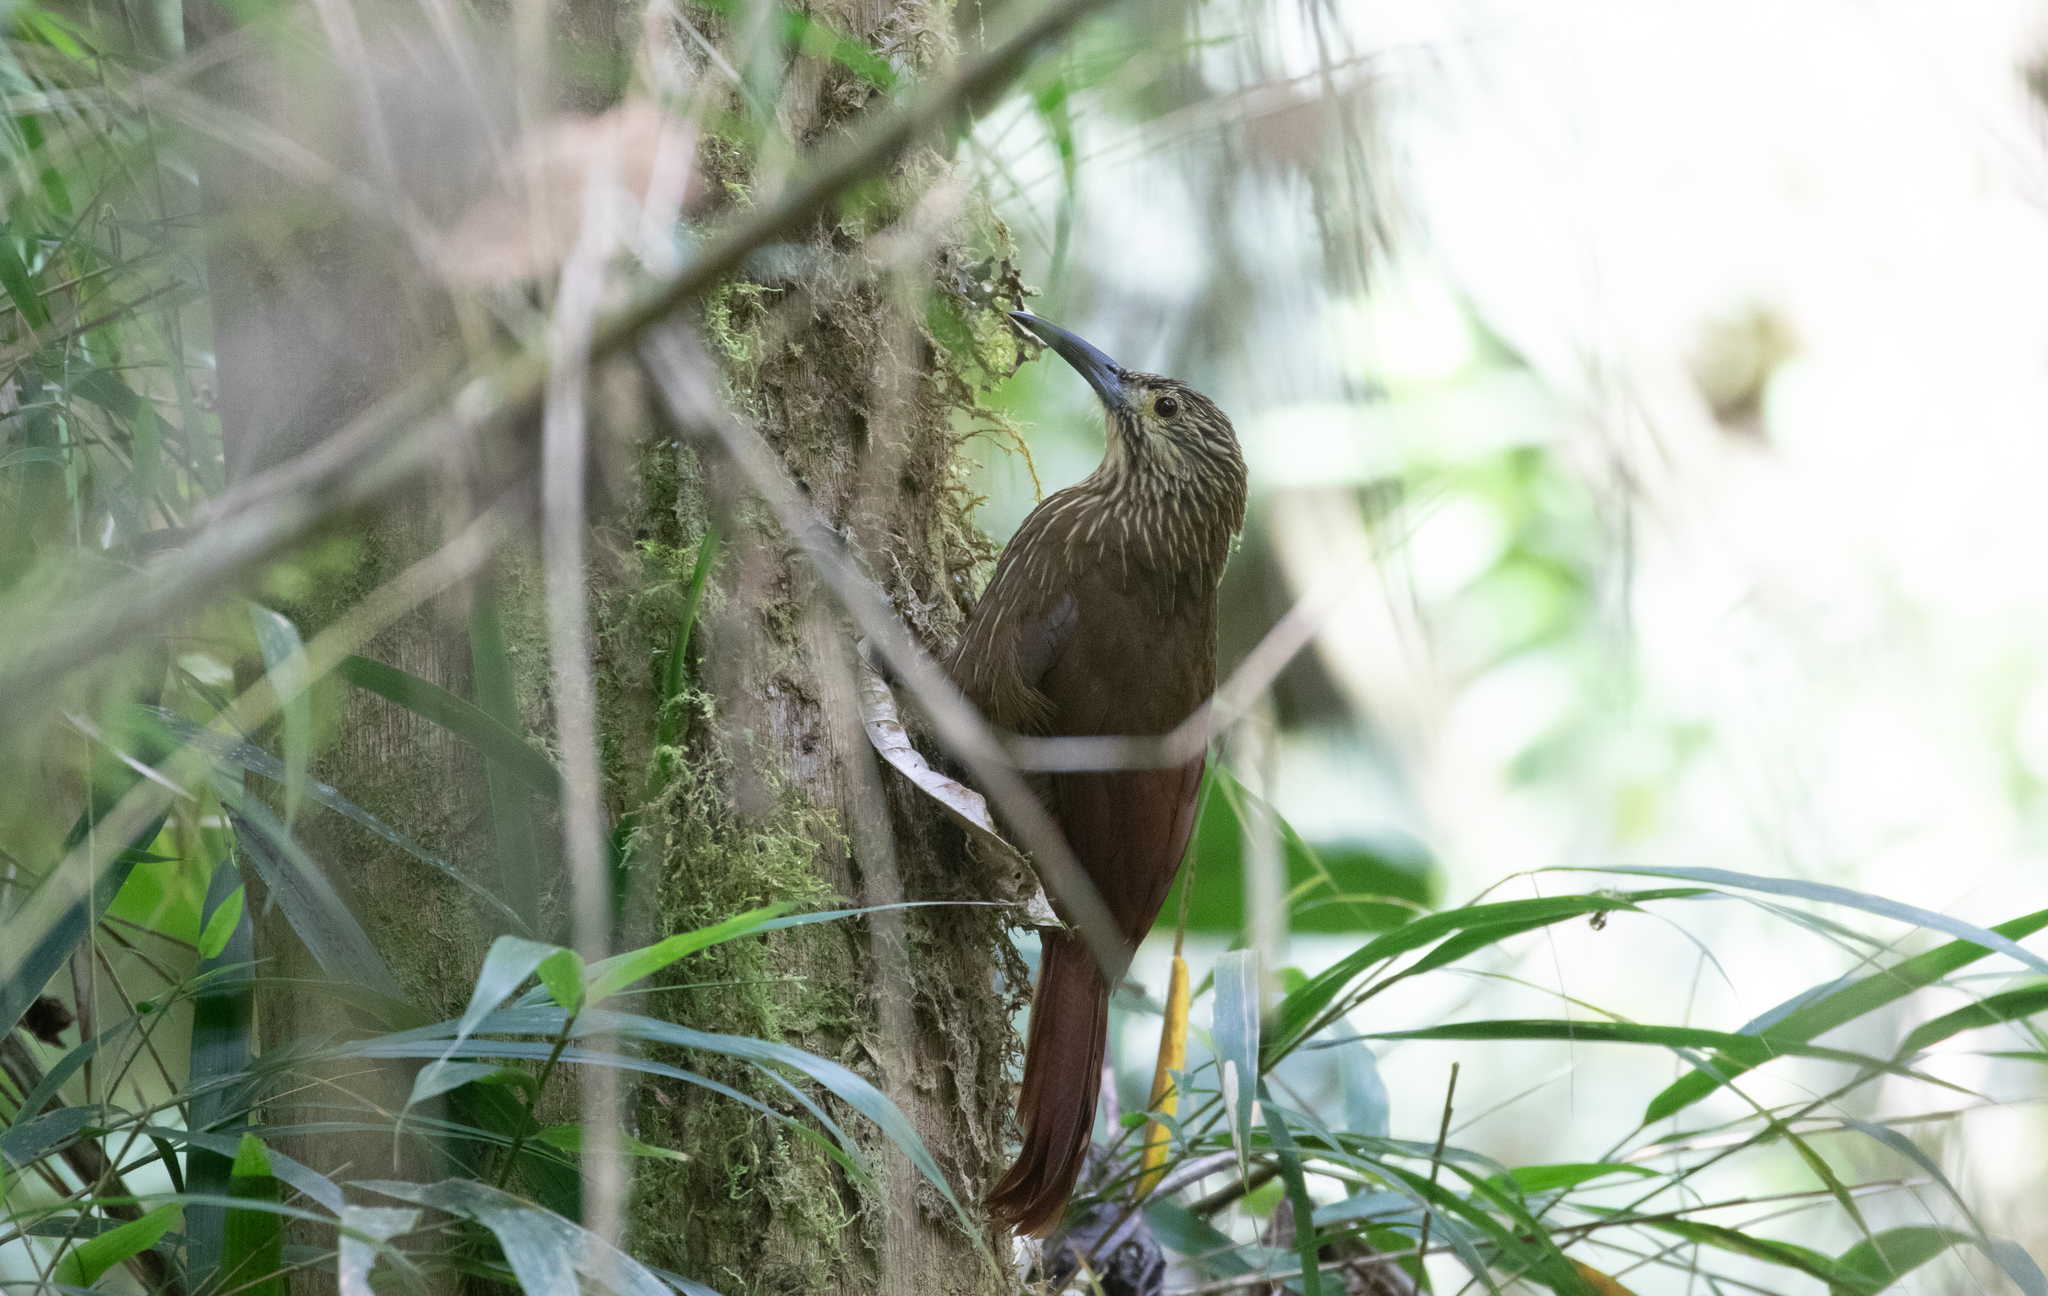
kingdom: Animalia
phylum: Chordata
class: Aves
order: Passeriformes
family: Furnariidae
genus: Xiphocolaptes
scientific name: Xiphocolaptes promeropirhynchus
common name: Strong-billed woodcreeper
